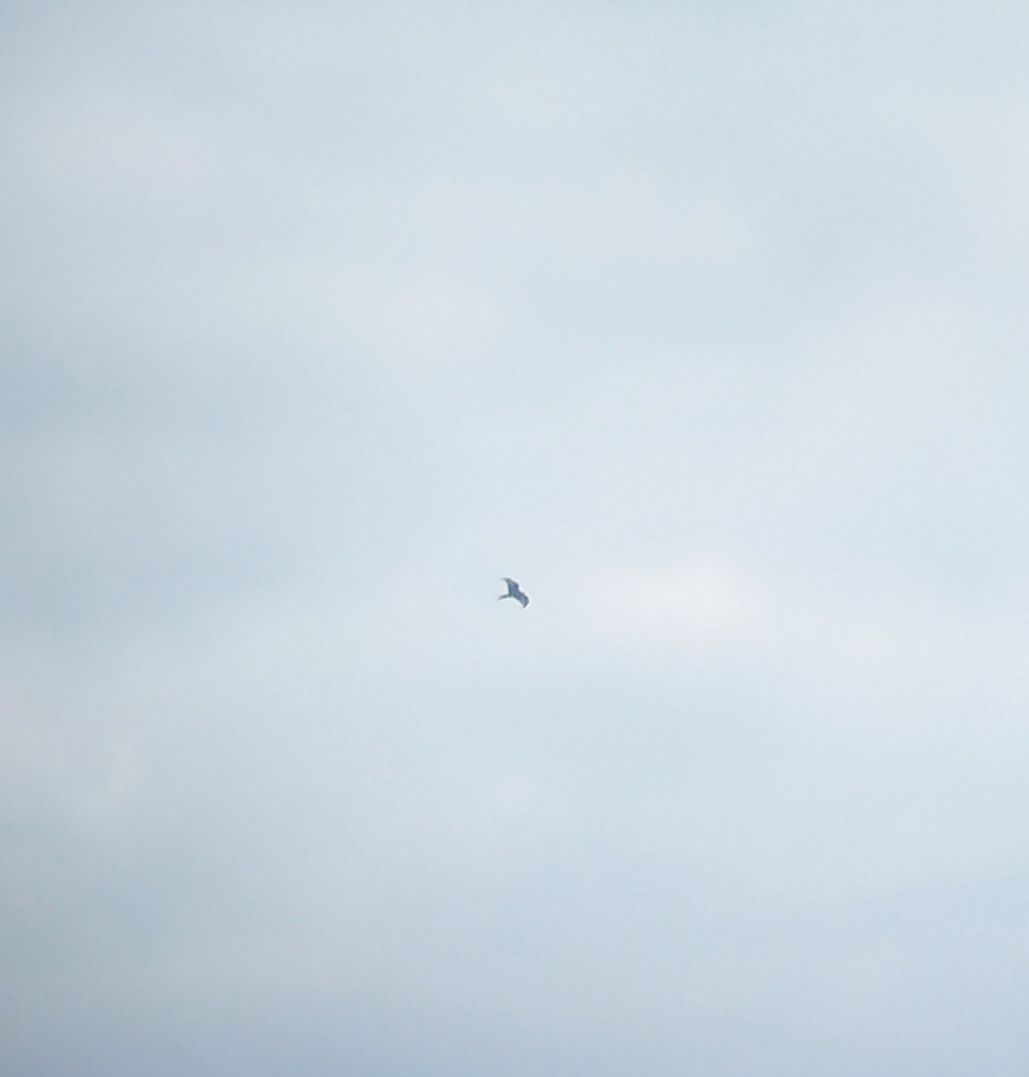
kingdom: Animalia
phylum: Chordata
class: Aves
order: Accipitriformes
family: Accipitridae
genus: Milvus
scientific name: Milvus milvus
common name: Red kite
